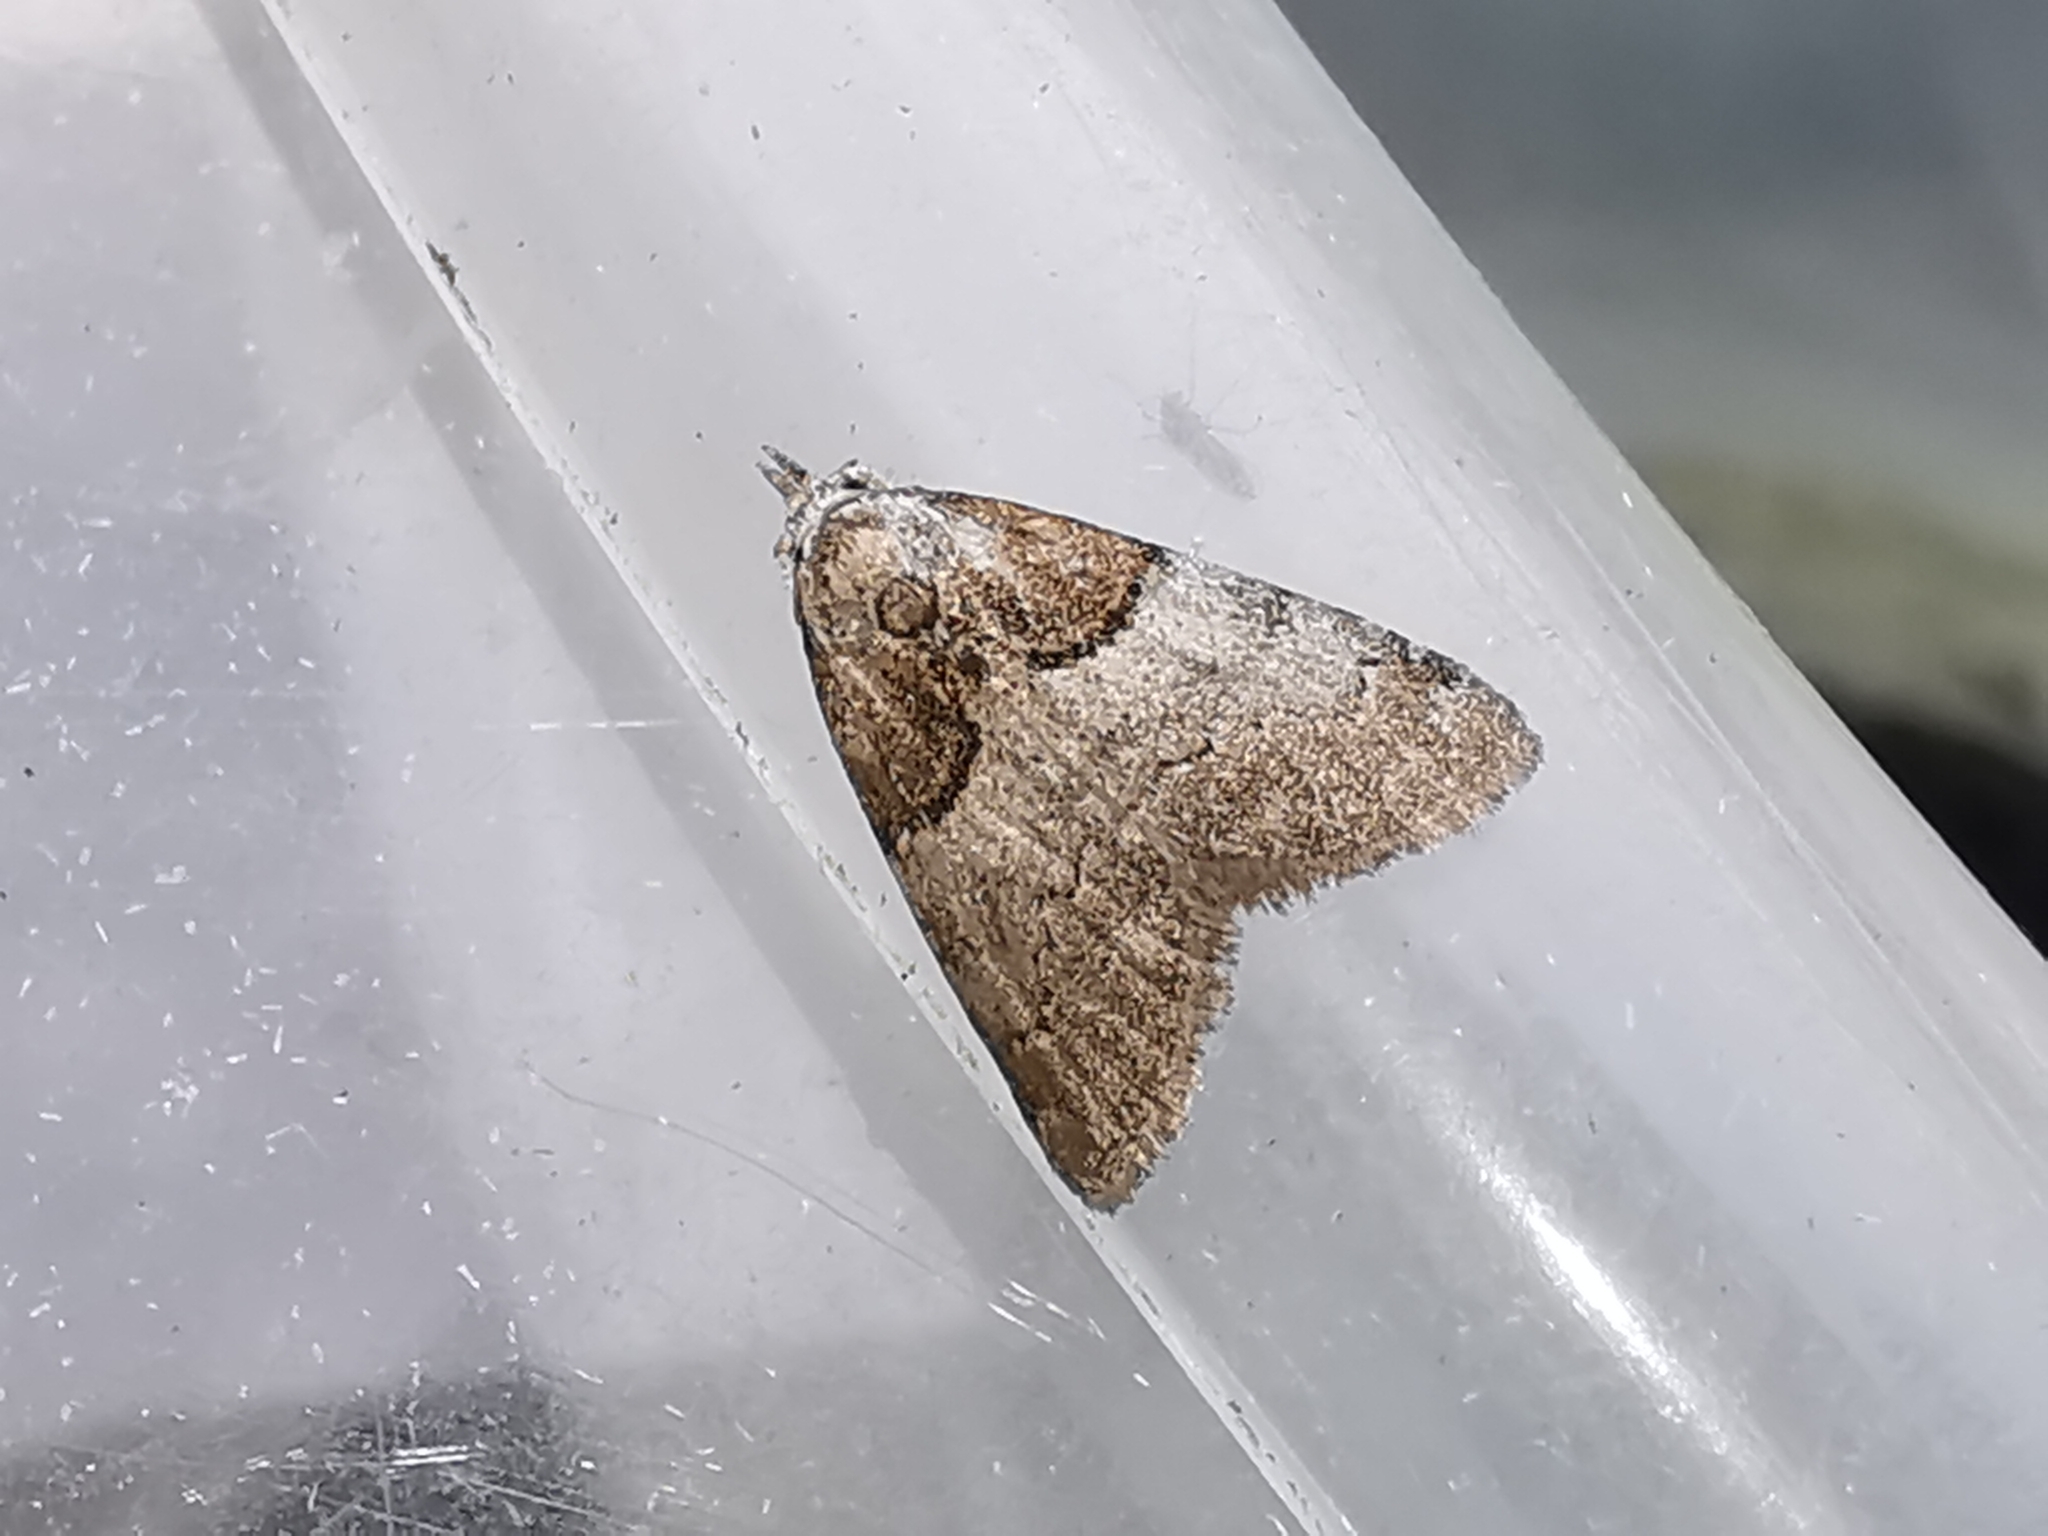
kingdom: Animalia
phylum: Arthropoda
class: Insecta
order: Lepidoptera
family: Nolidae
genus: Nola
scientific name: Nola cucullatella
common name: Short-cloaked moth
